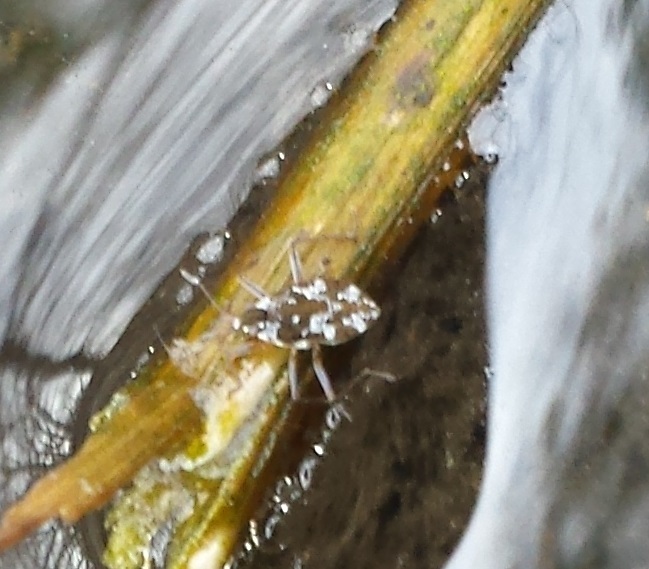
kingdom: Animalia
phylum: Arthropoda
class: Insecta
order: Hemiptera
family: Veliidae
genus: Microvelia
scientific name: Microvelia americana
